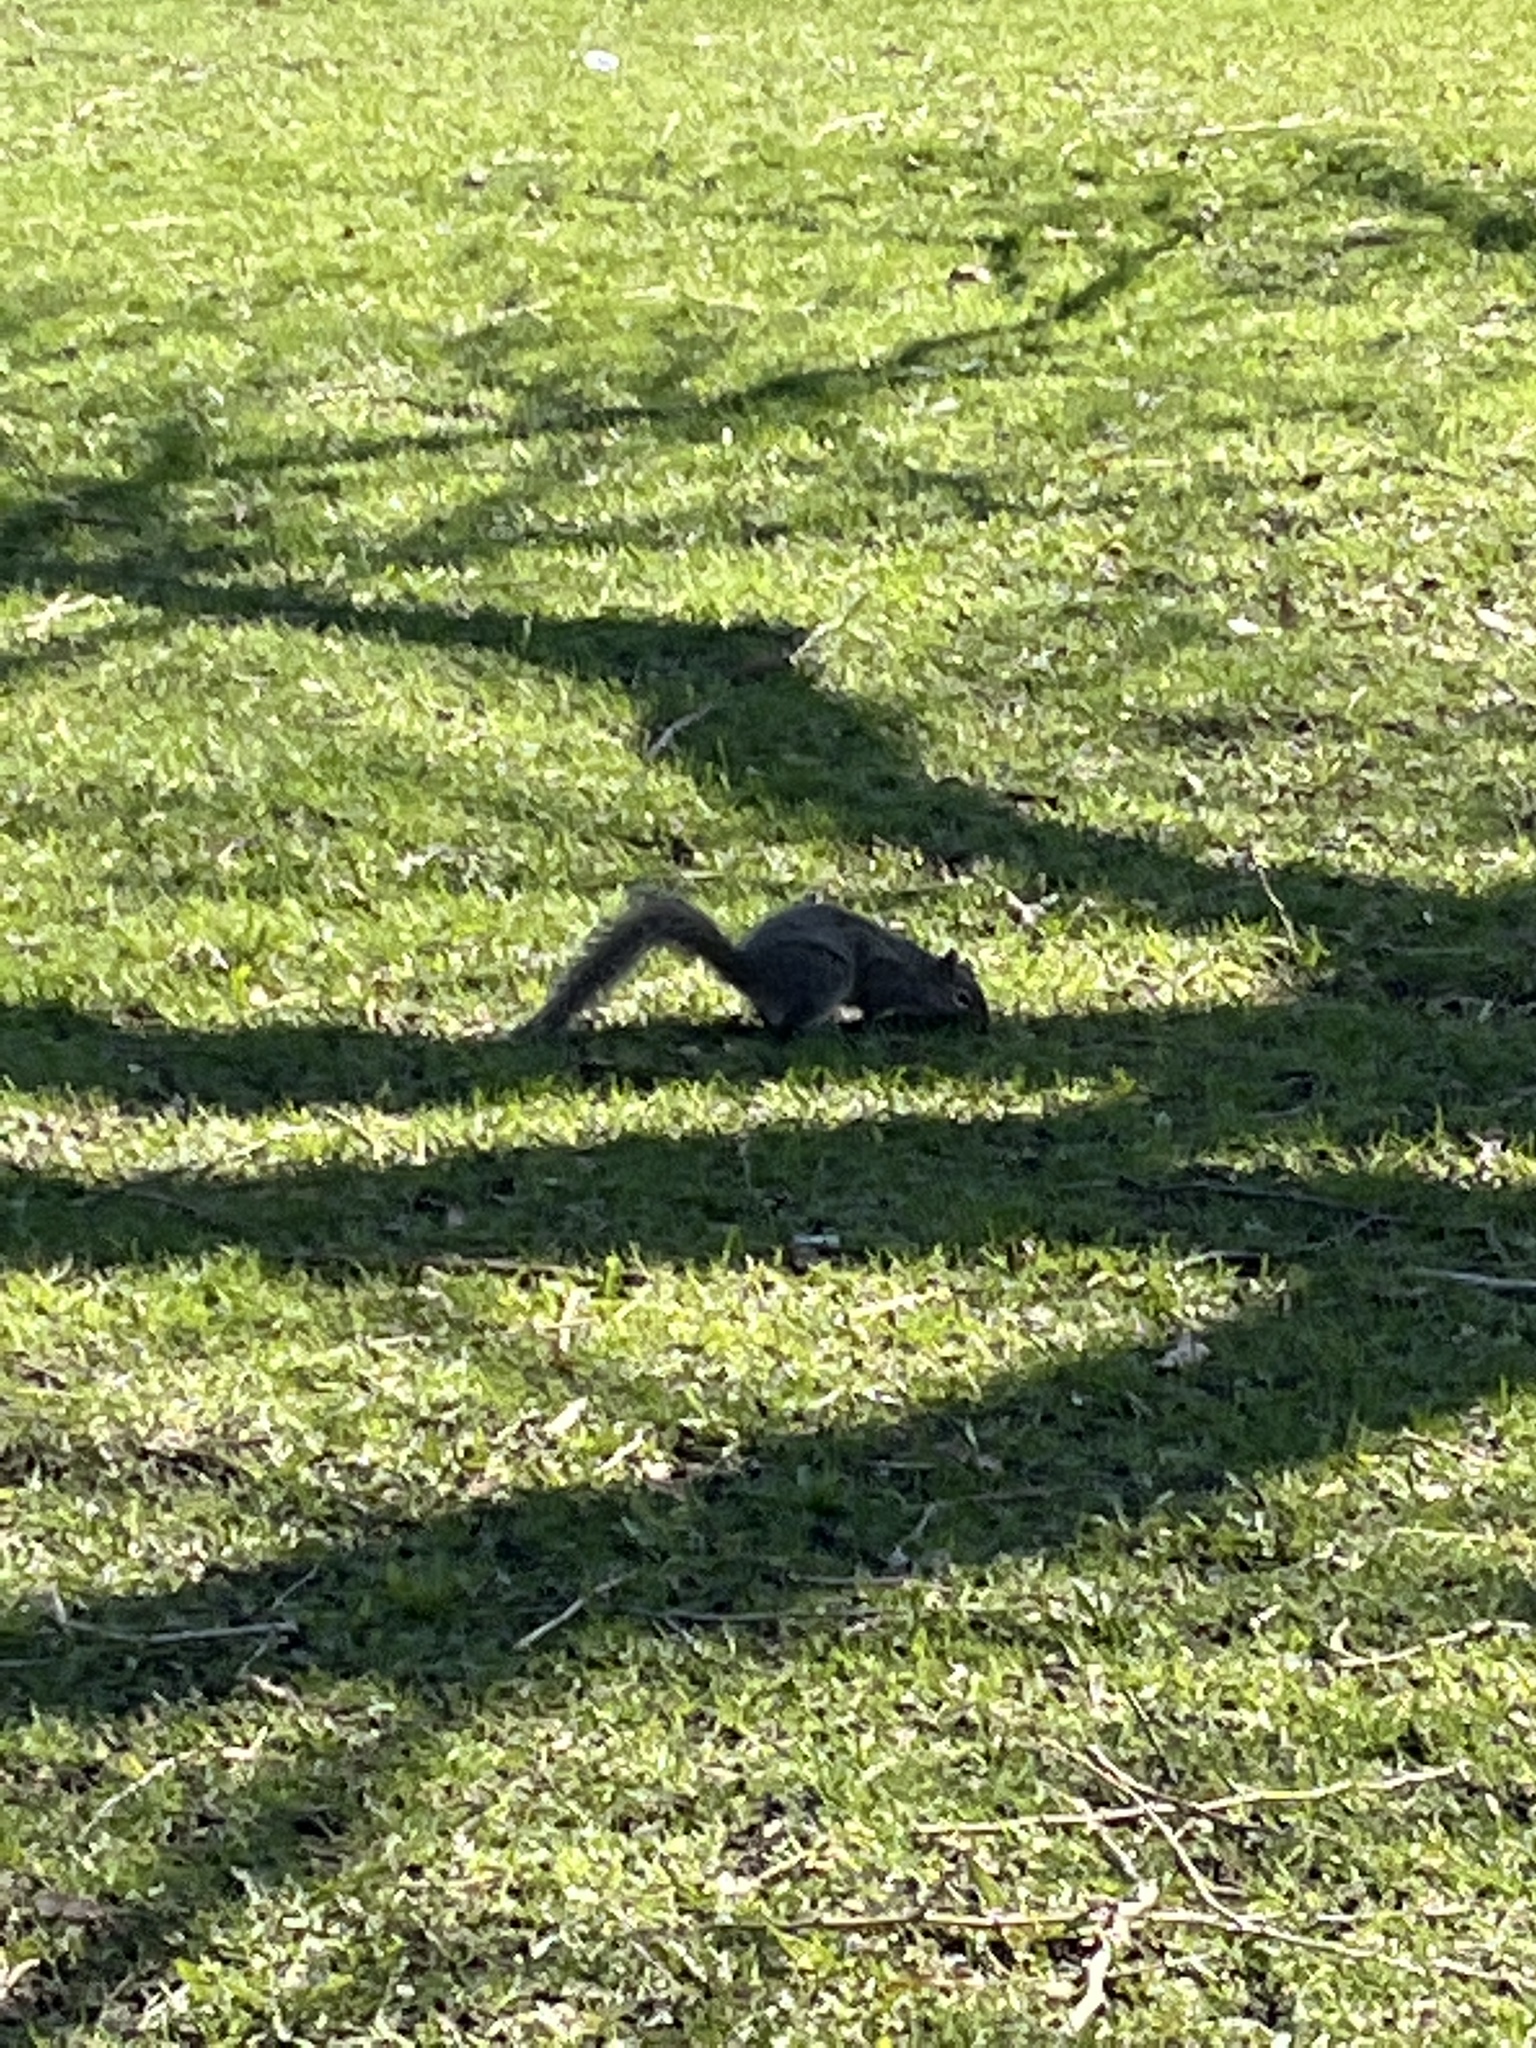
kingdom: Animalia
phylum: Chordata
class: Mammalia
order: Rodentia
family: Sciuridae
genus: Sciurus
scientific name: Sciurus carolinensis
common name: Eastern gray squirrel
